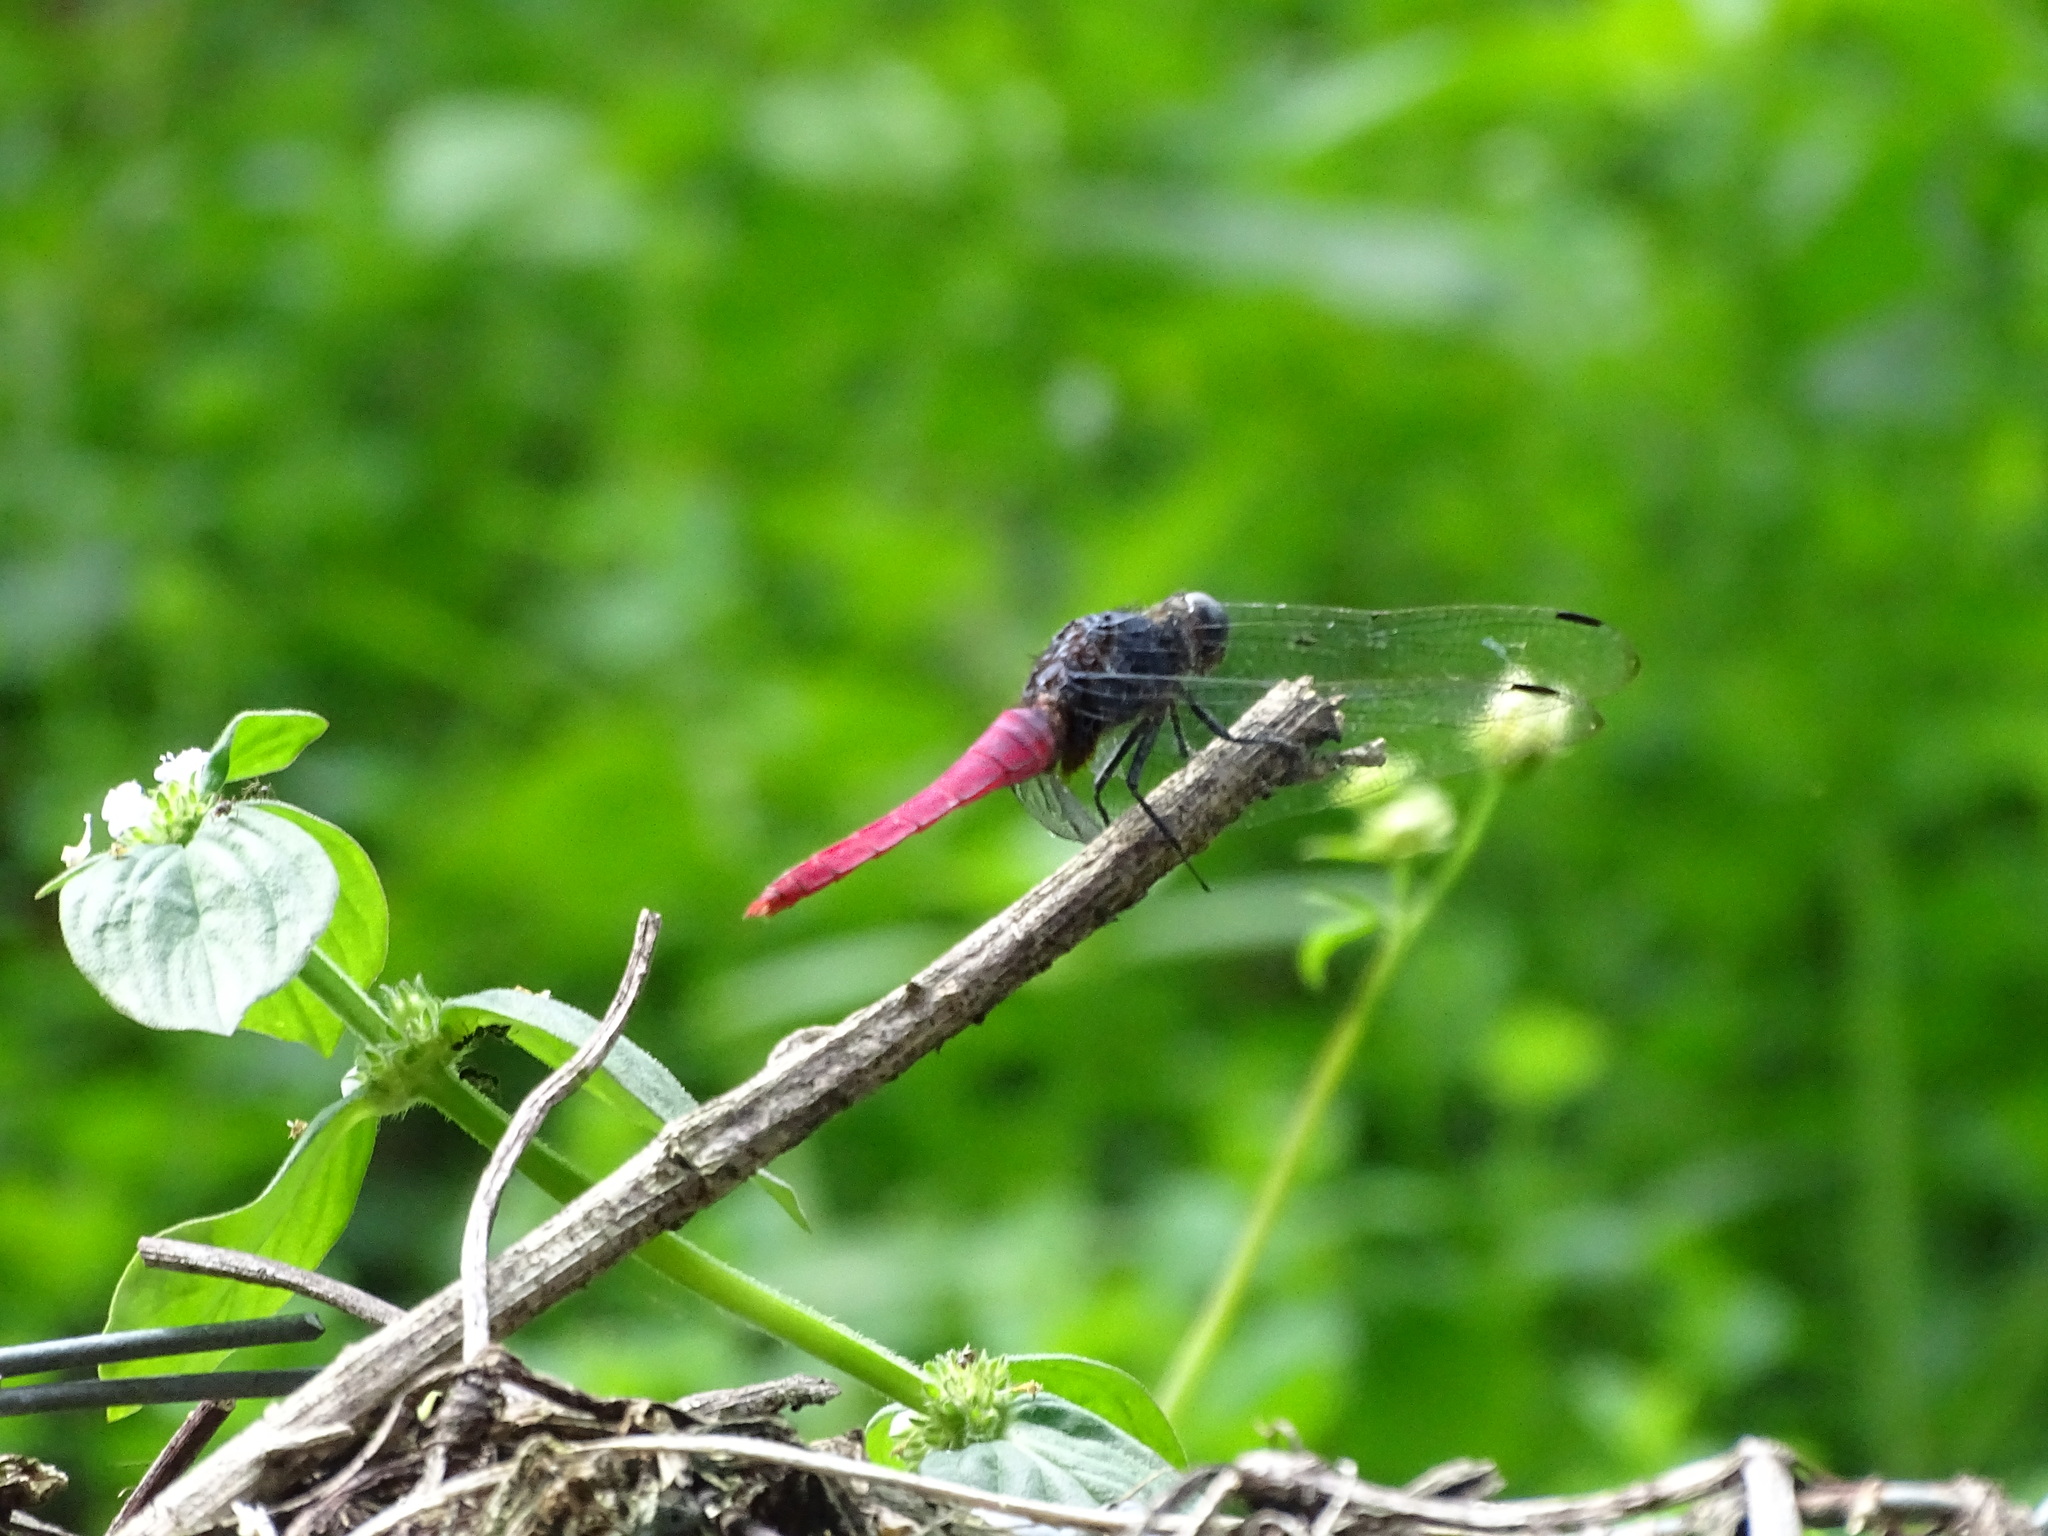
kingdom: Animalia
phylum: Arthropoda
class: Insecta
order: Odonata
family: Libellulidae
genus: Orthetrum
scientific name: Orthetrum pruinosum
